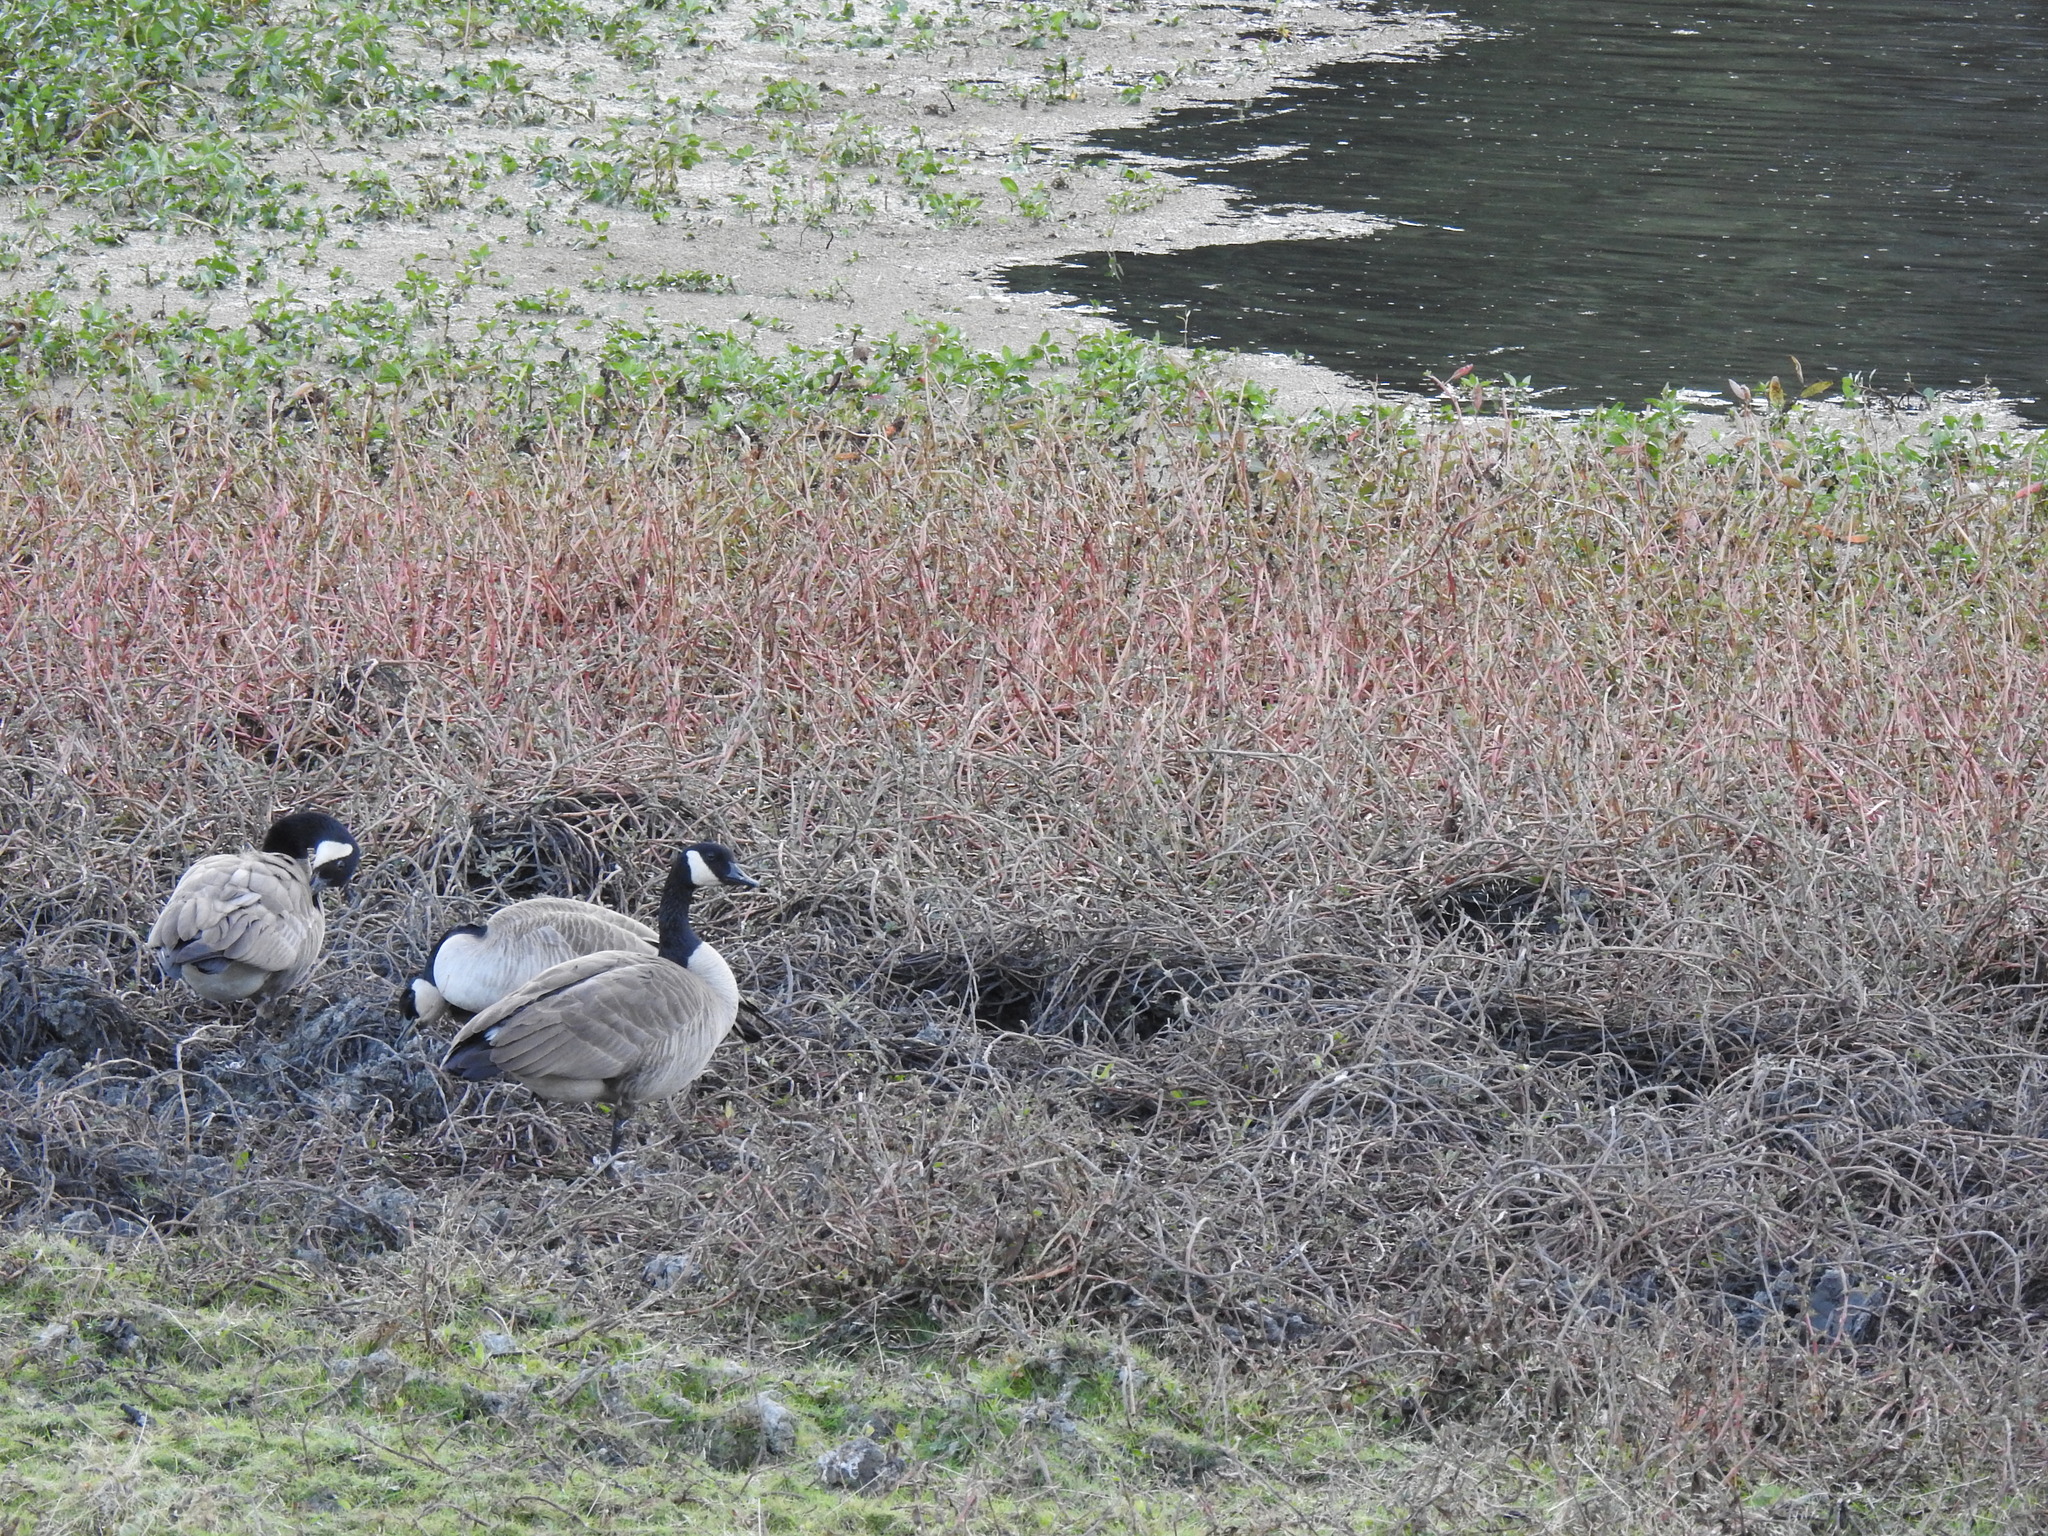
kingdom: Animalia
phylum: Chordata
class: Aves
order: Anseriformes
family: Anatidae
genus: Branta
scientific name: Branta canadensis
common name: Canada goose
